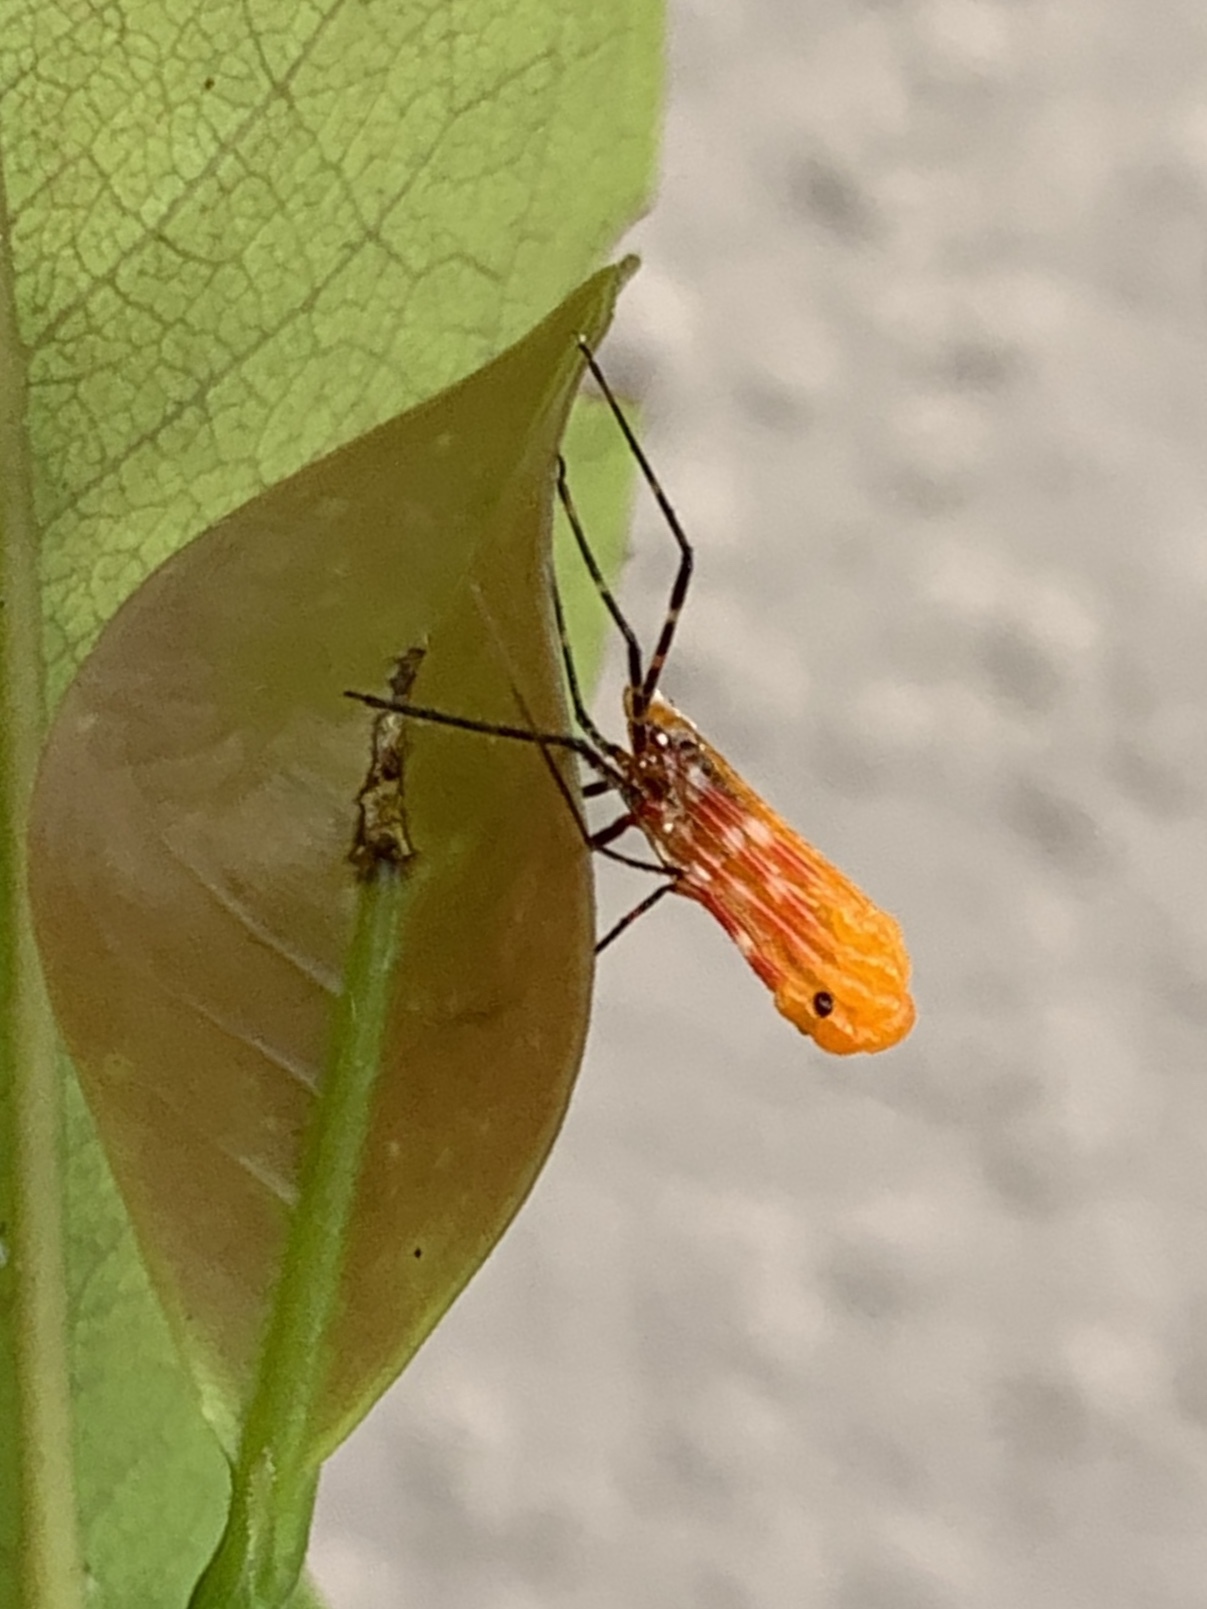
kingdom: Animalia
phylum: Arthropoda
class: Insecta
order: Hemiptera
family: Reduviidae
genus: Zelus
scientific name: Zelus longipes
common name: Milkweed assassin bug
